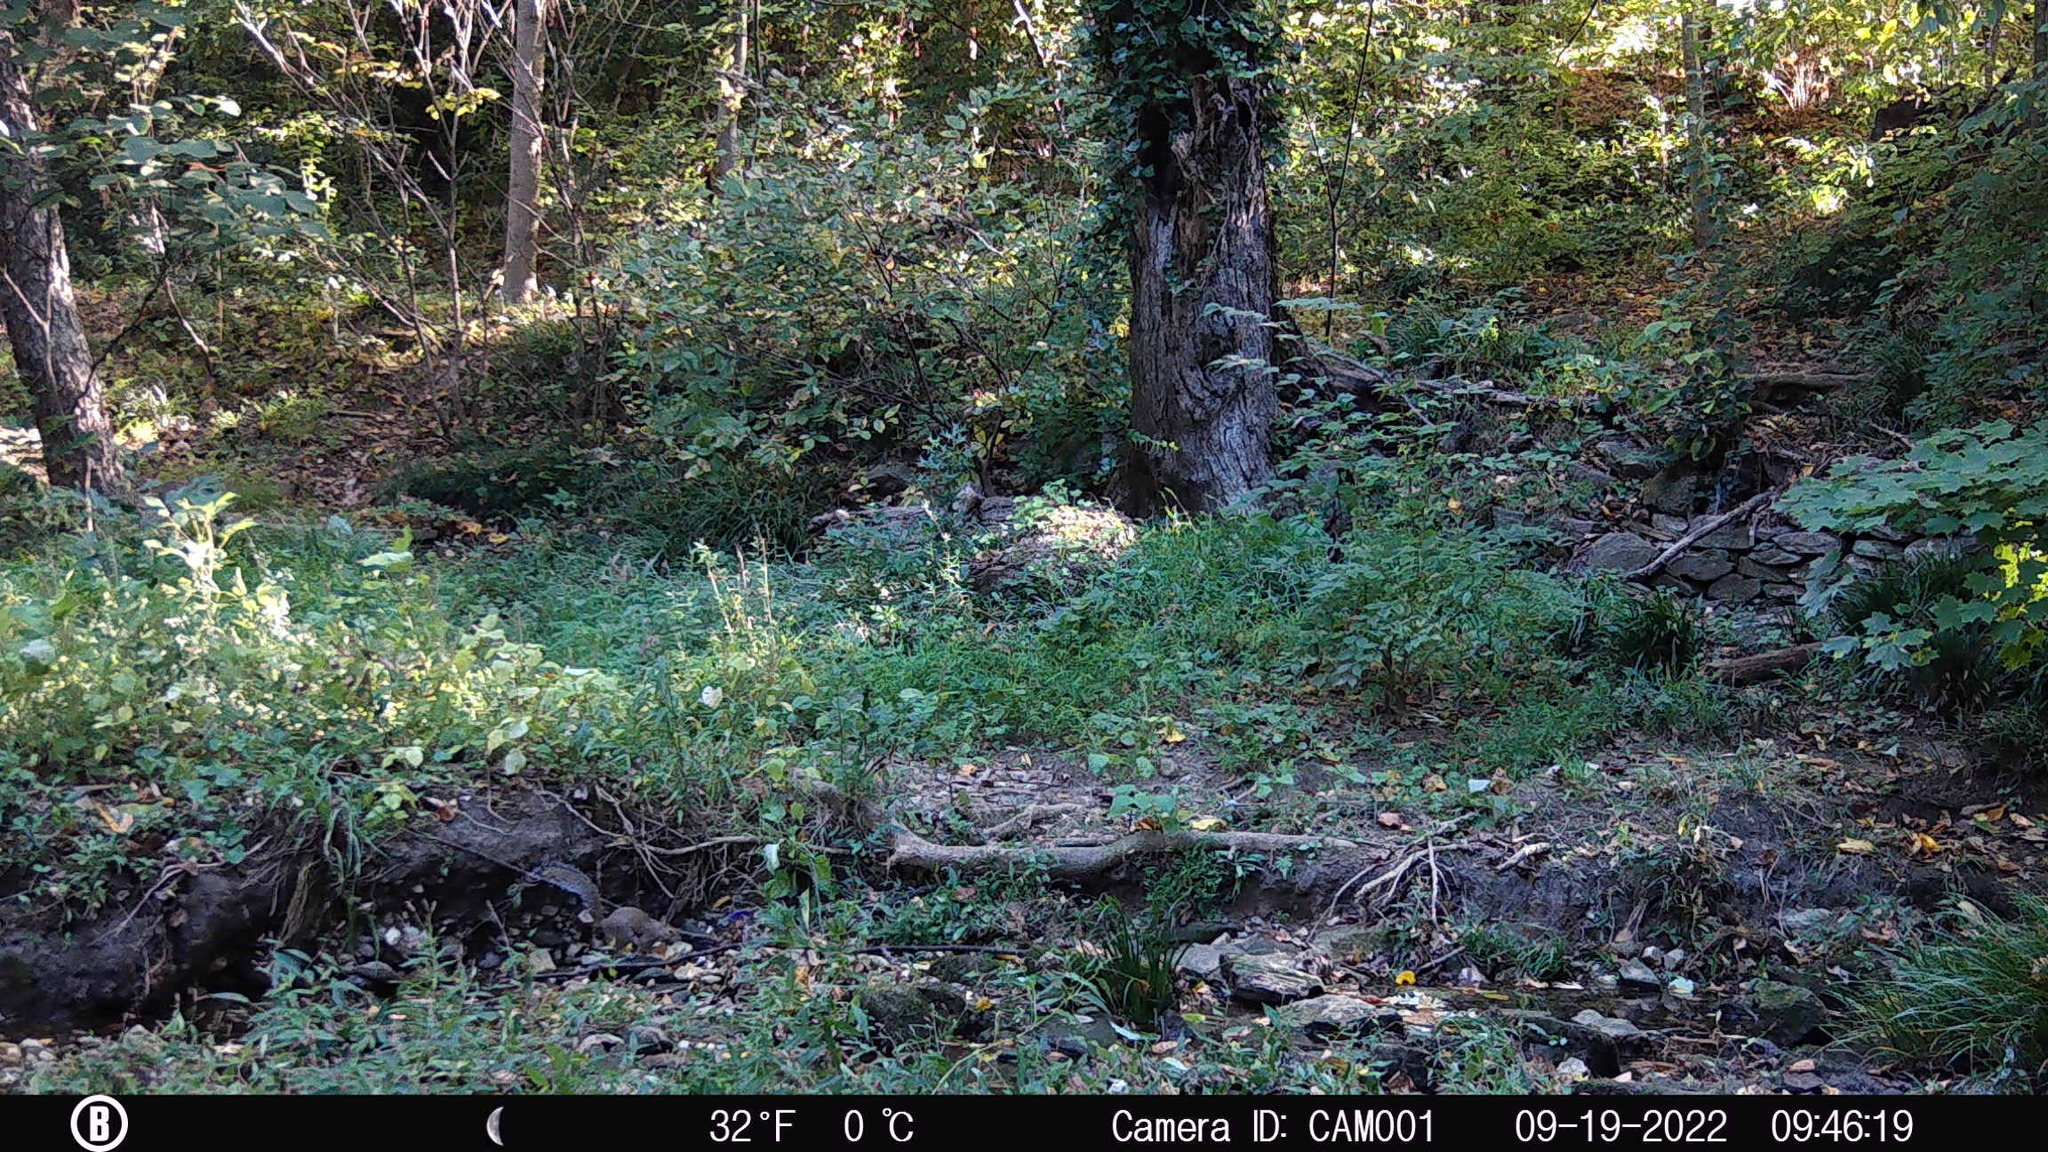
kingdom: Animalia
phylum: Chordata
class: Mammalia
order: Rodentia
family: Sciuridae
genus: Sciurus
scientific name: Sciurus carolinensis
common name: Eastern gray squirrel
